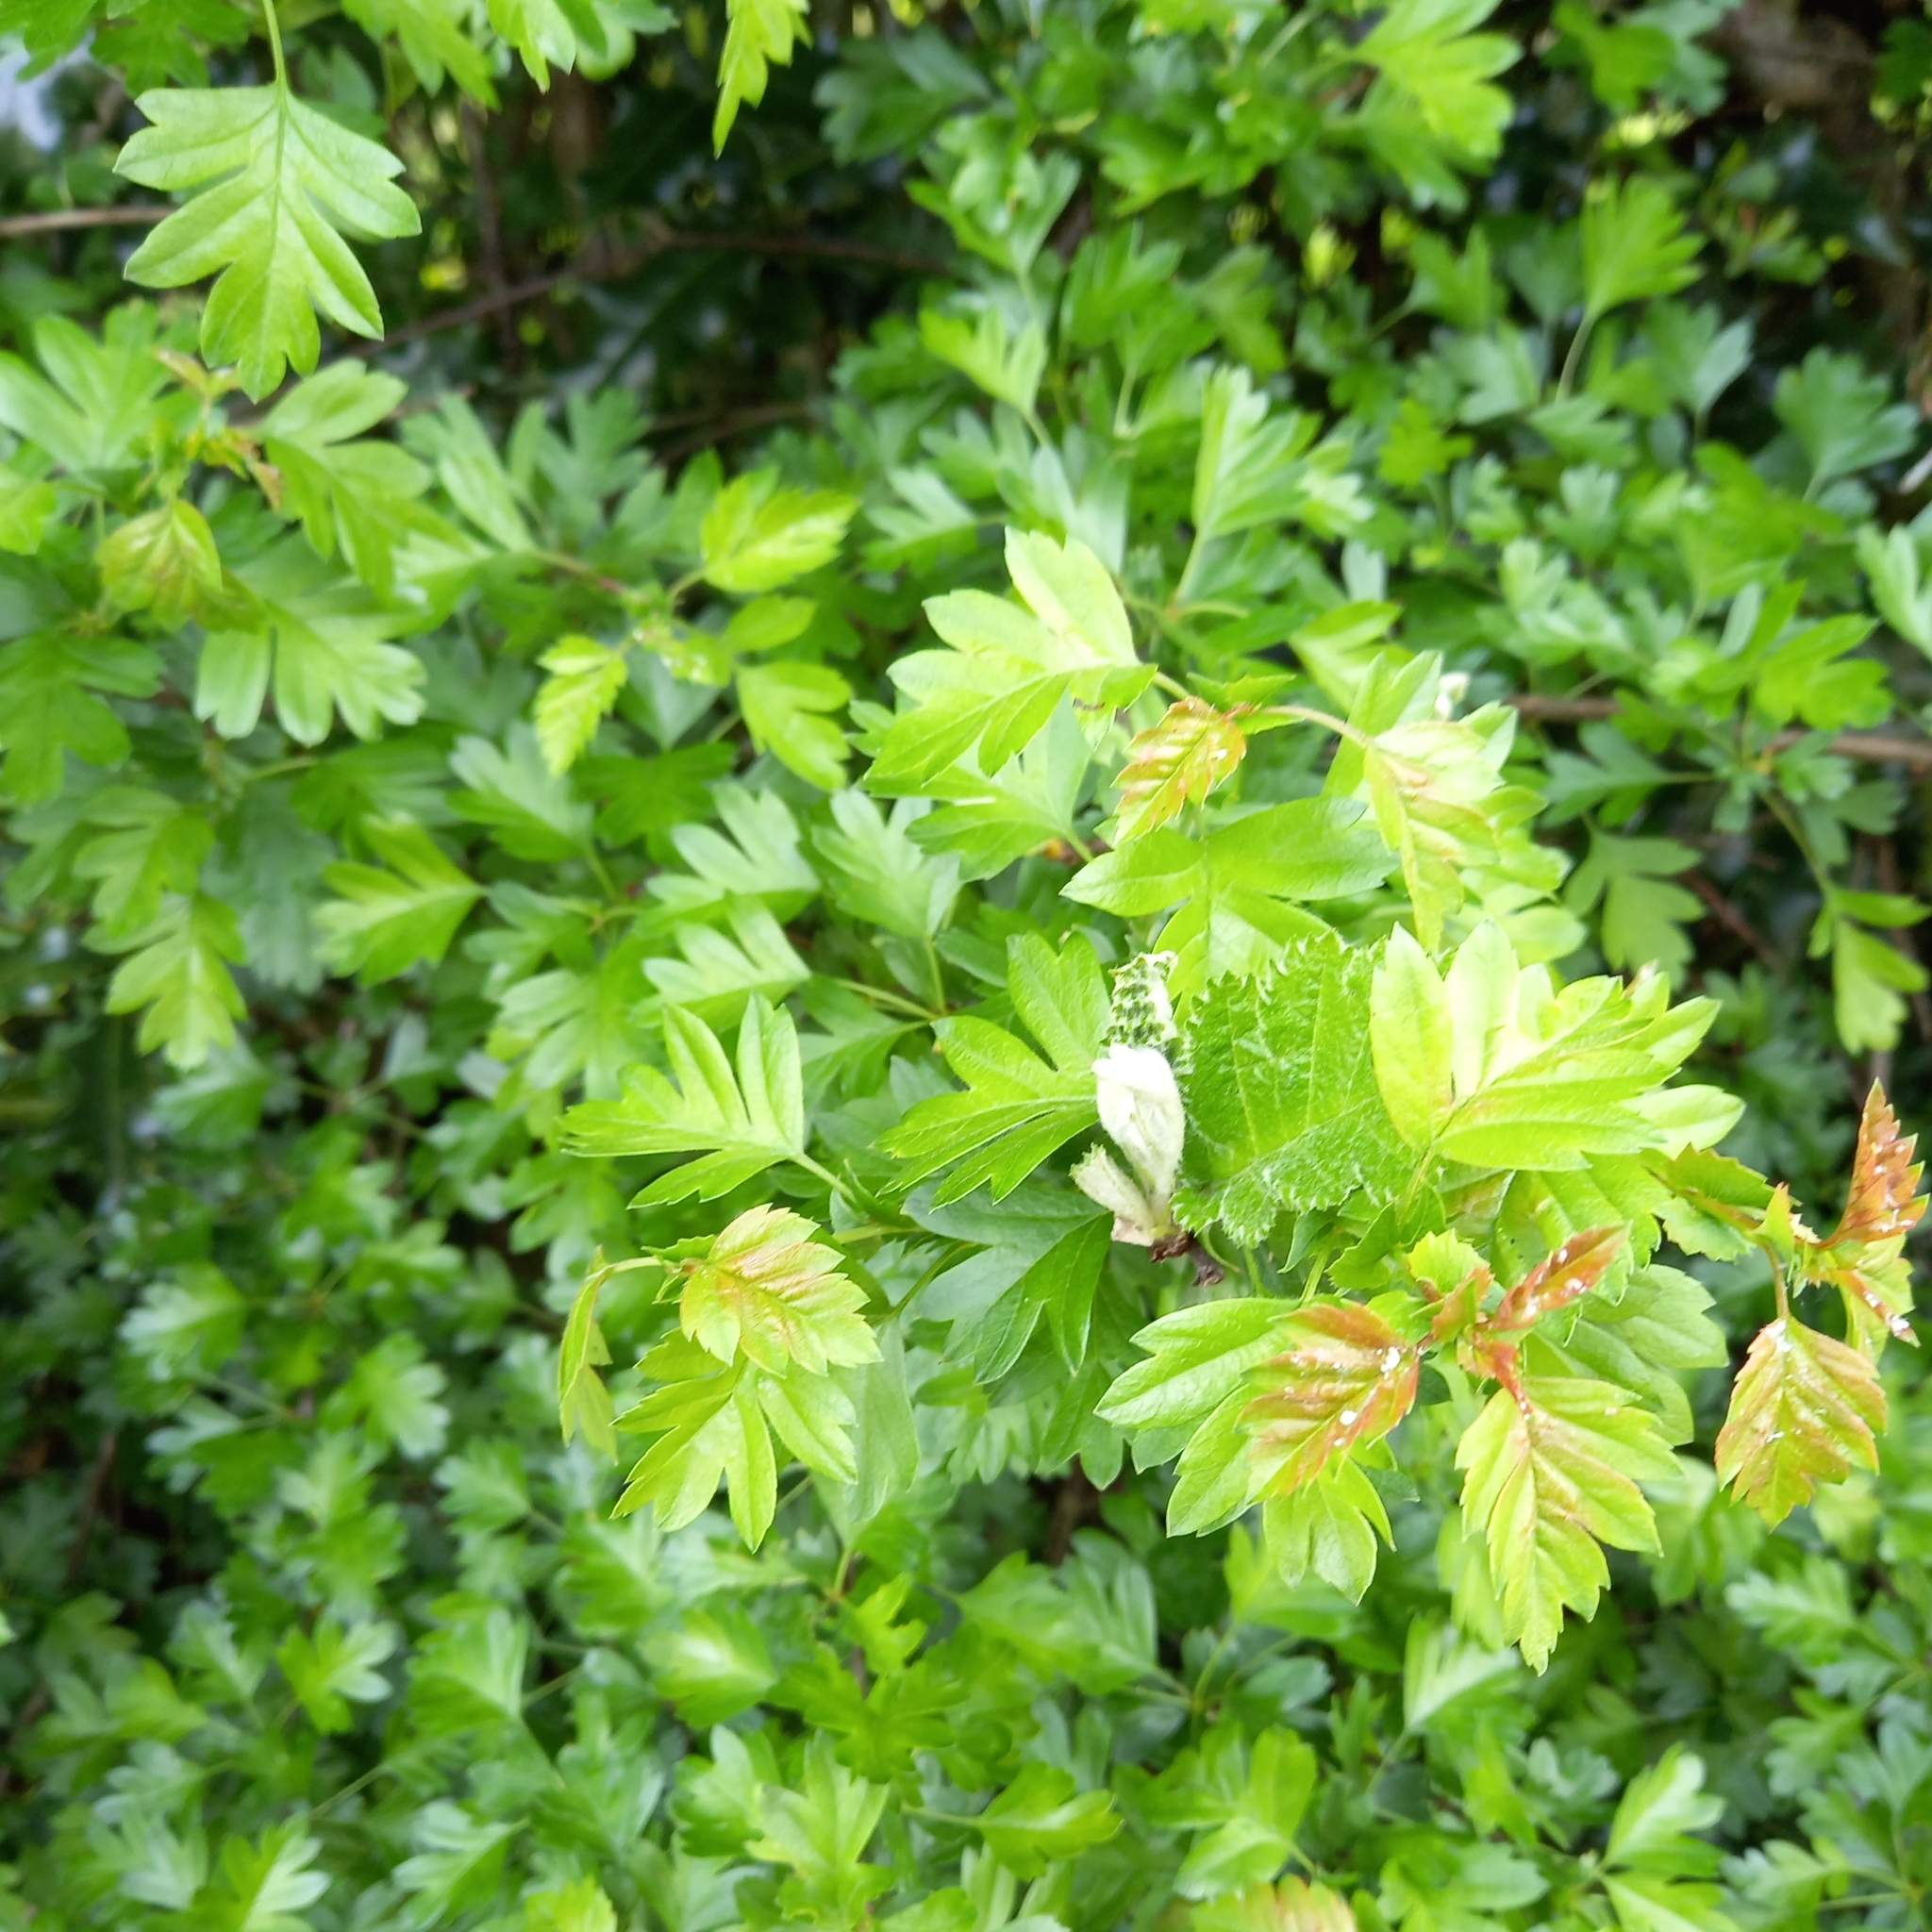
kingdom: Plantae
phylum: Tracheophyta
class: Magnoliopsida
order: Rosales
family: Rosaceae
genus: Crataegus
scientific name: Crataegus monogyna
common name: Hawthorn
